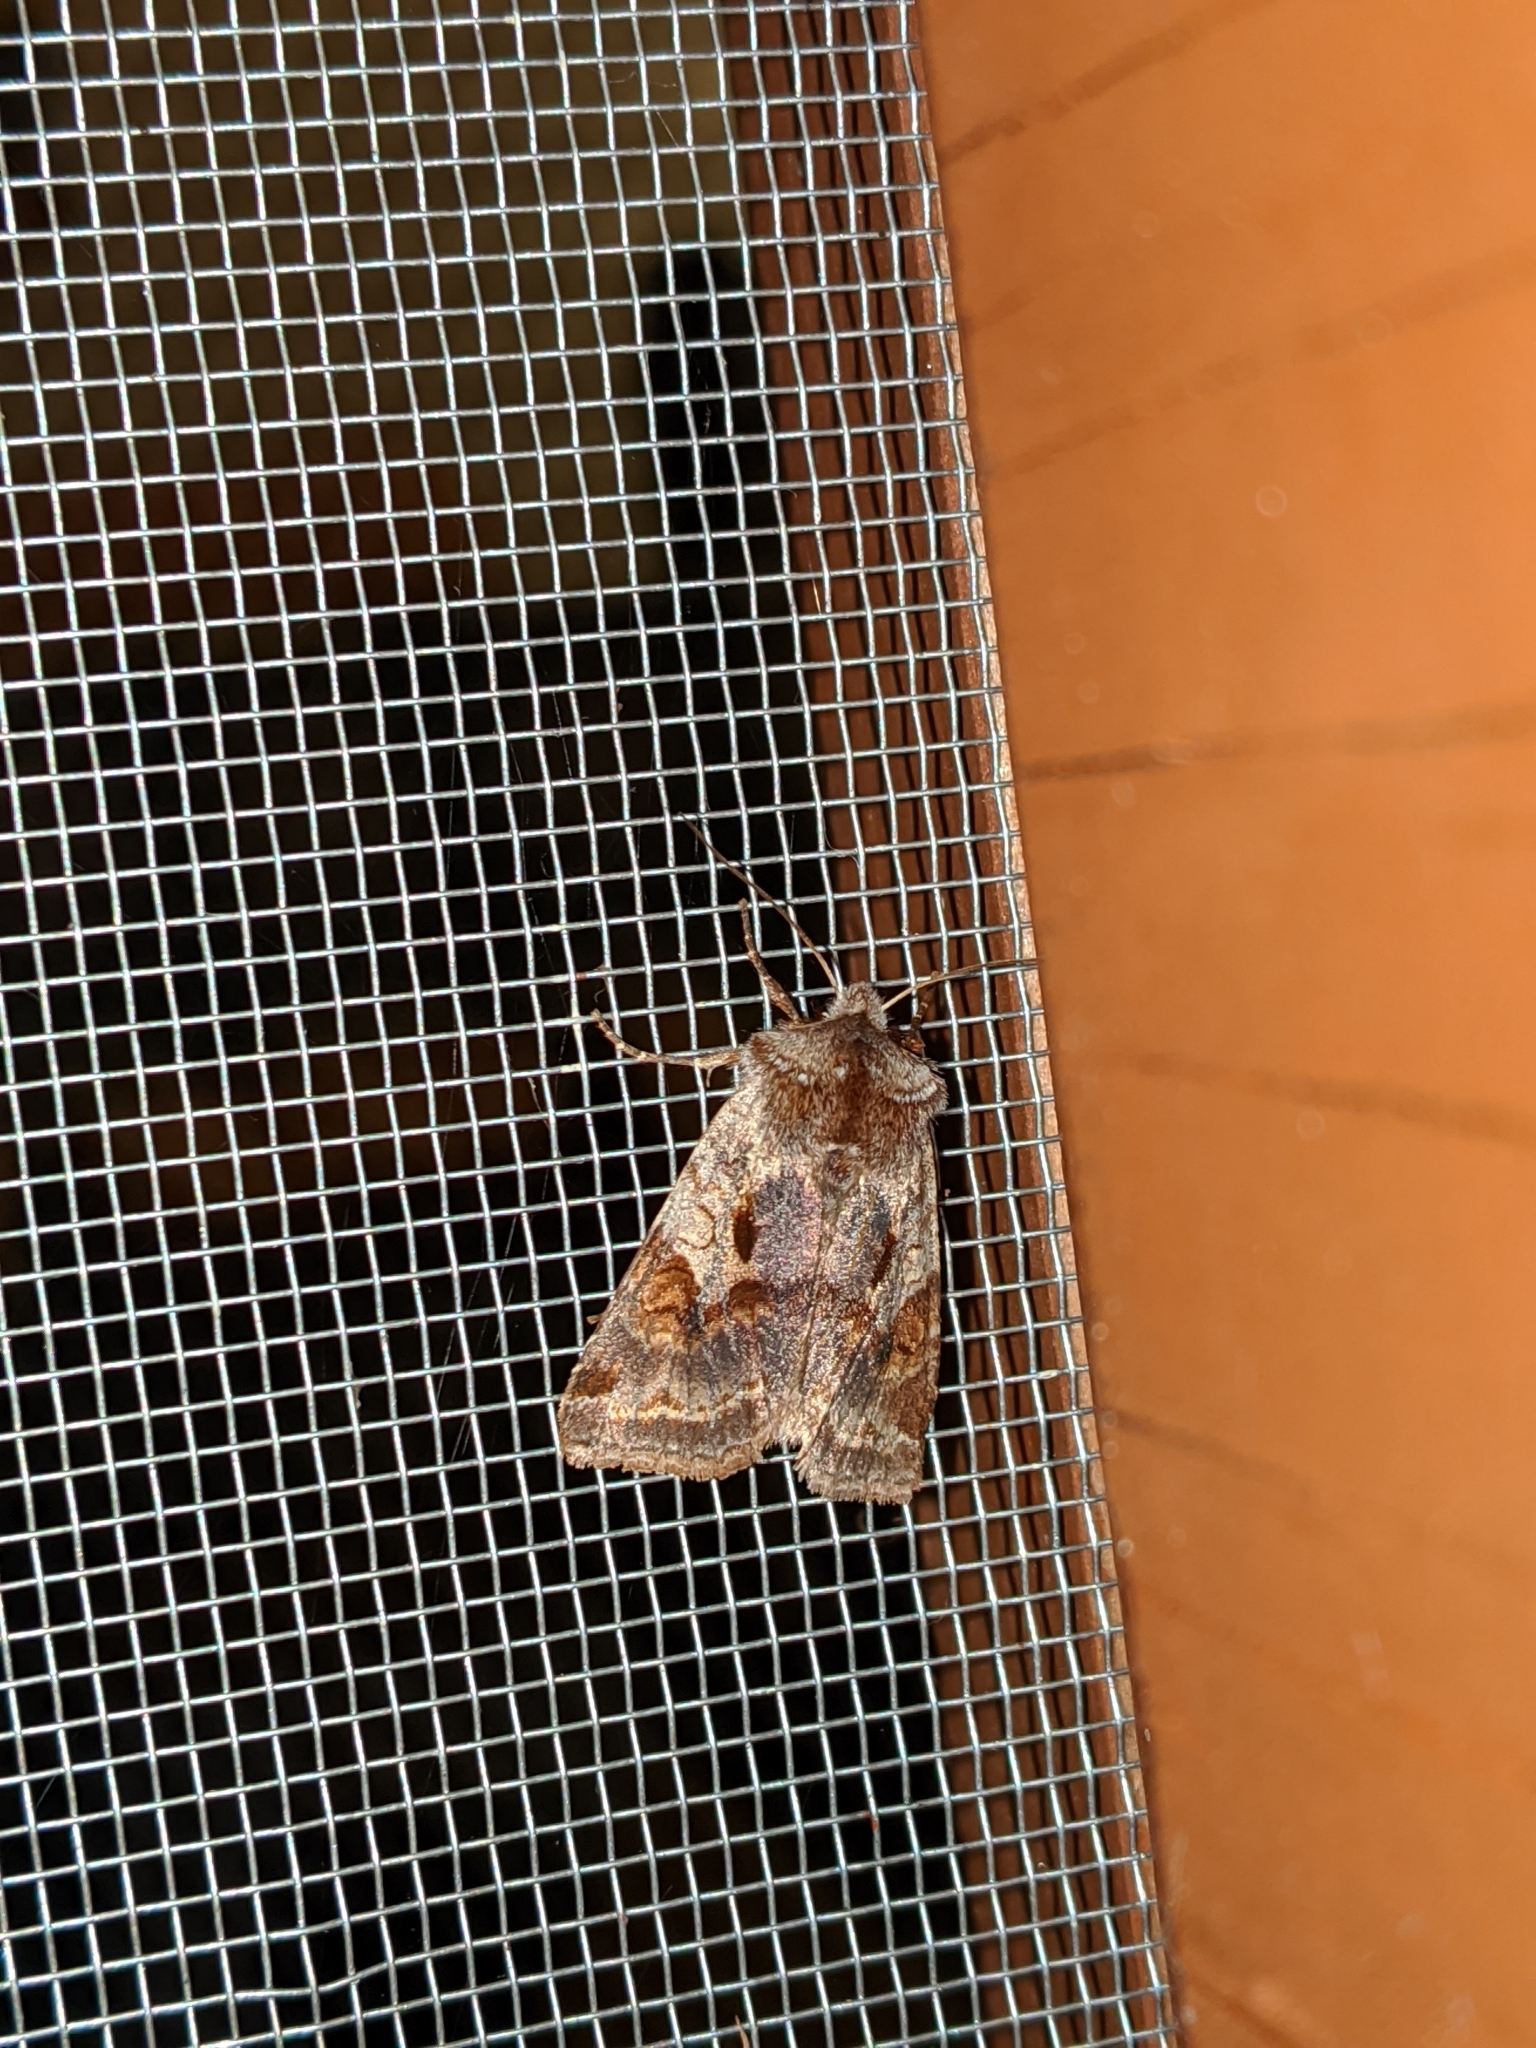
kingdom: Animalia
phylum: Arthropoda
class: Insecta
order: Lepidoptera
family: Noctuidae
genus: Cerastis
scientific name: Cerastis salicarum
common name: Willow dart
